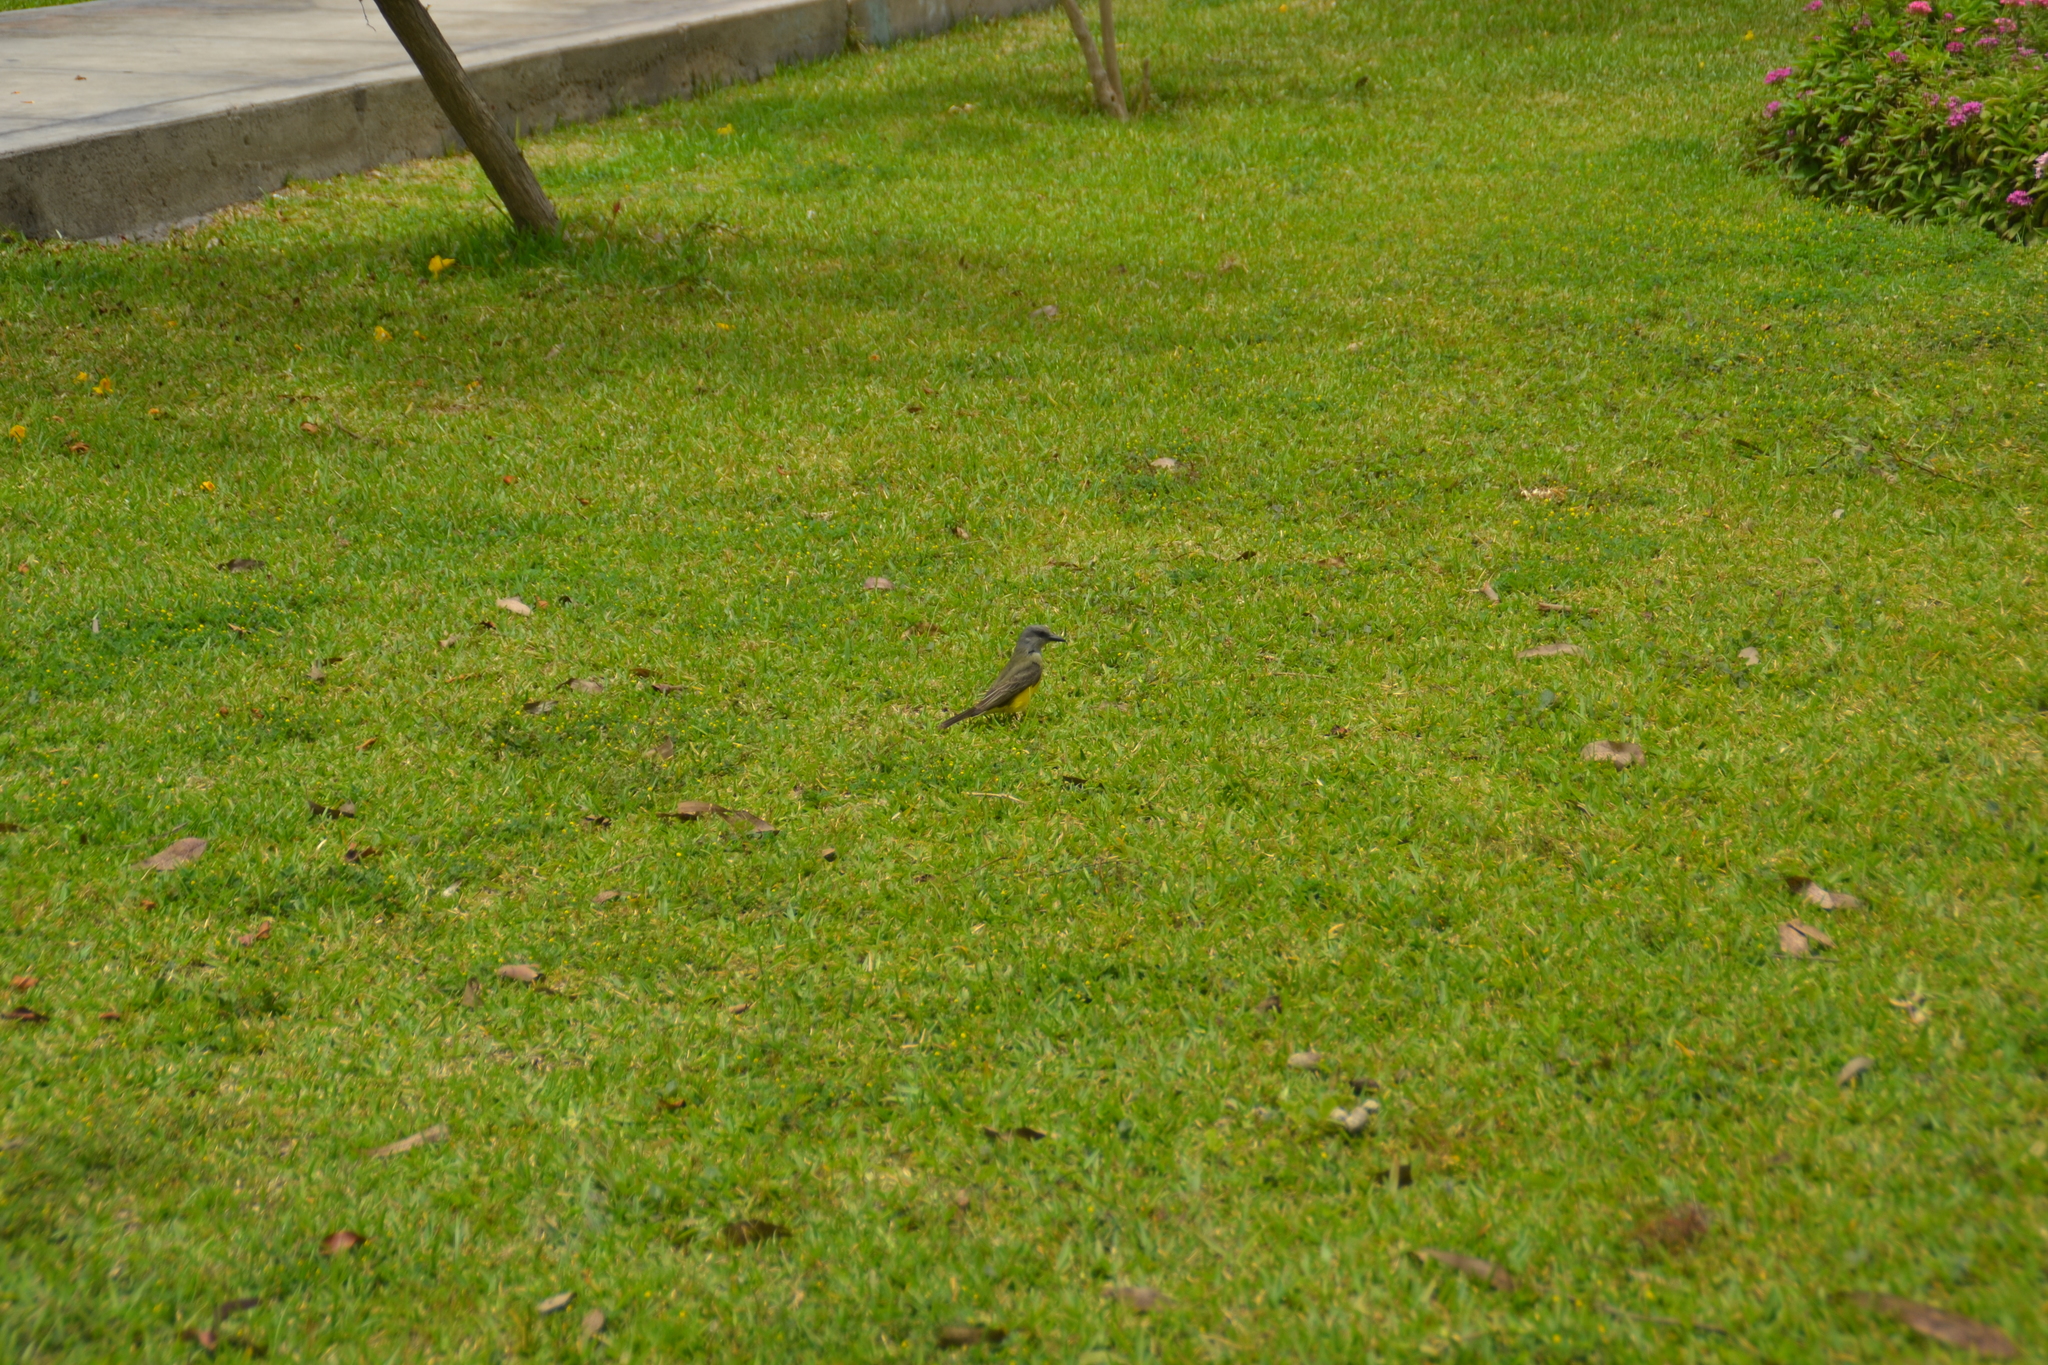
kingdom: Animalia
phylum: Chordata
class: Aves
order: Passeriformes
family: Tyrannidae
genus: Tyrannus
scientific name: Tyrannus melancholicus
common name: Tropical kingbird
